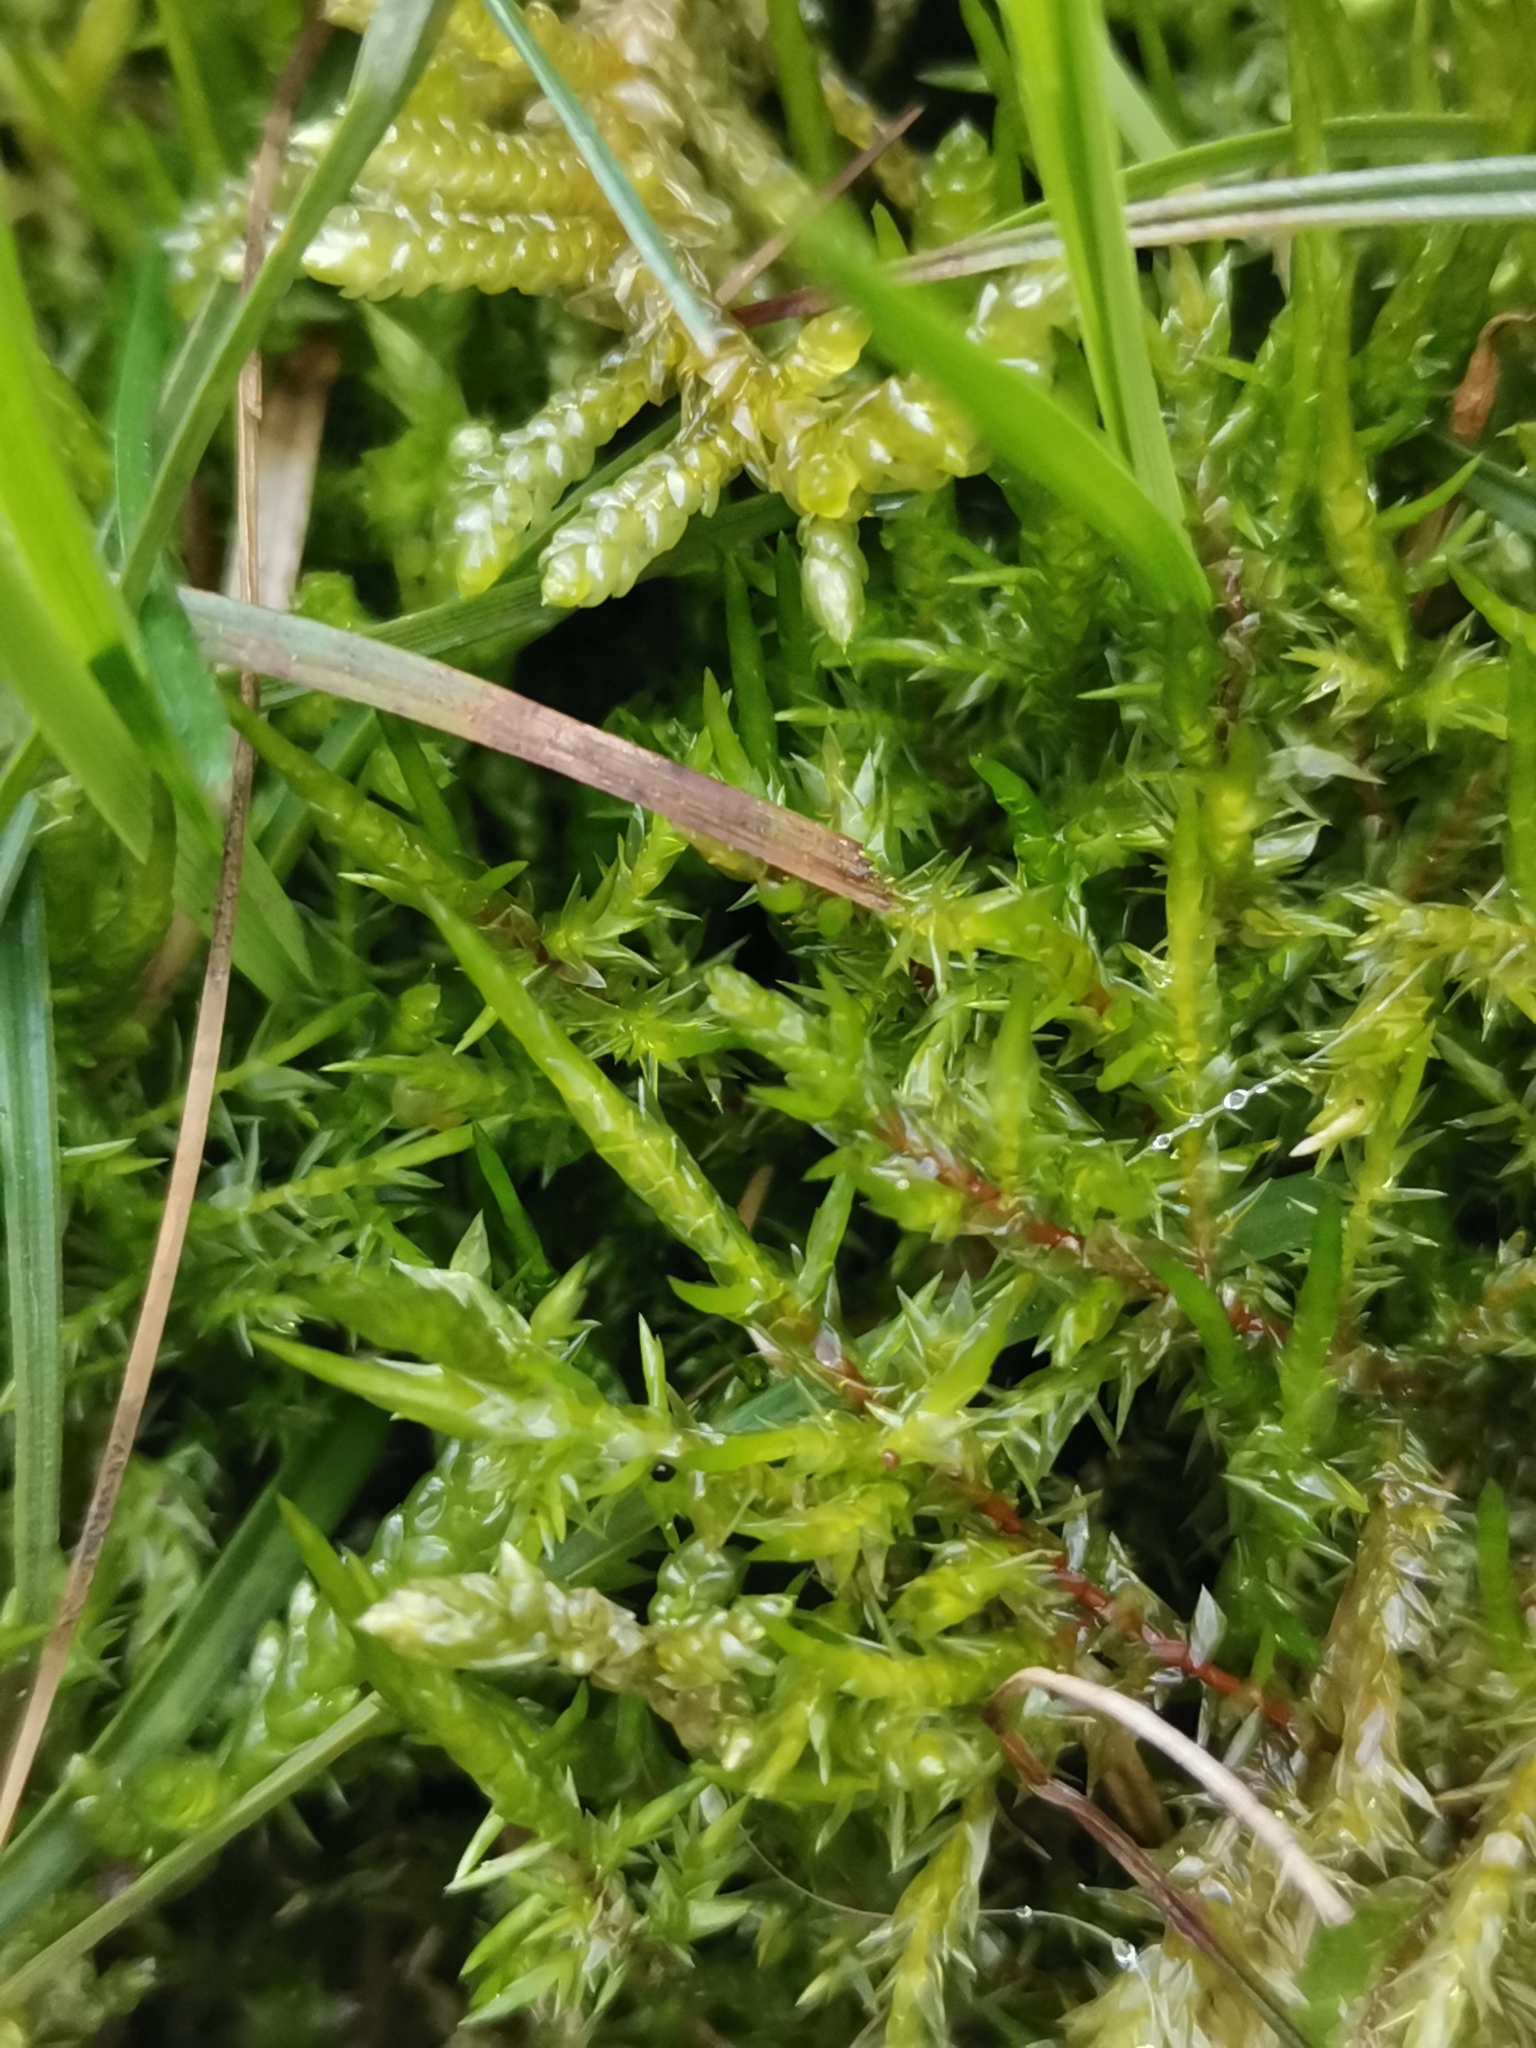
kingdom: Plantae
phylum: Bryophyta
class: Bryopsida
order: Hypnales
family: Pylaisiaceae
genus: Calliergonella
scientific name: Calliergonella cuspidata
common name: Common large wetland moss
